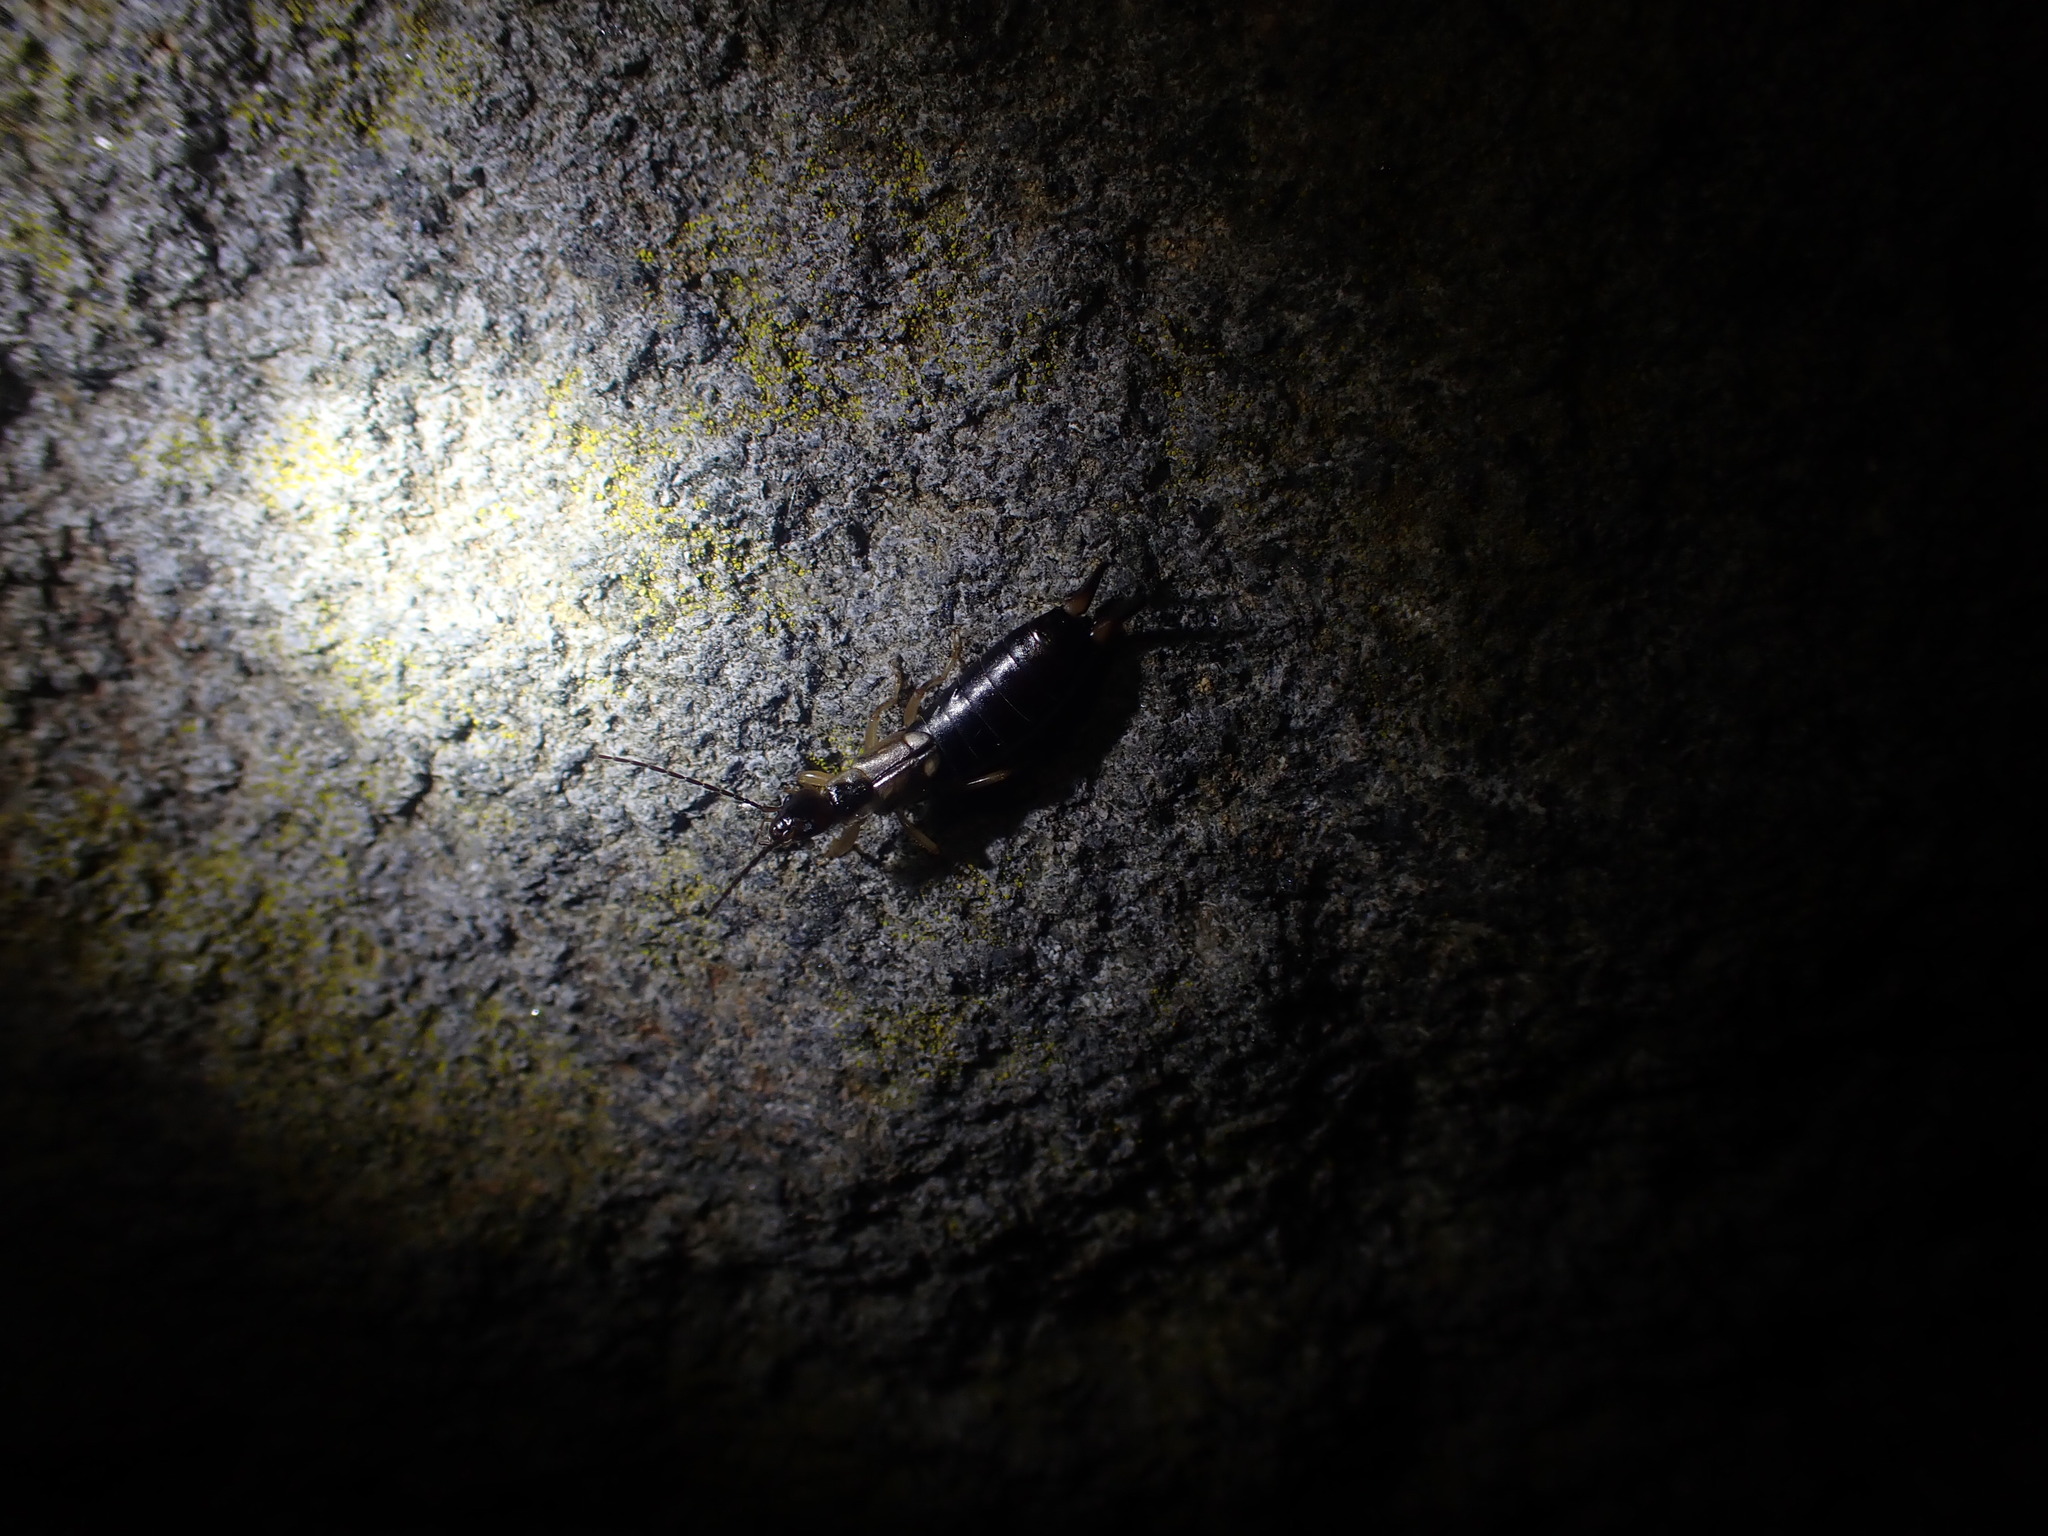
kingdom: Animalia
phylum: Arthropoda
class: Insecta
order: Dermaptera
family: Forficulidae
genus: Forficula
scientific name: Forficula
